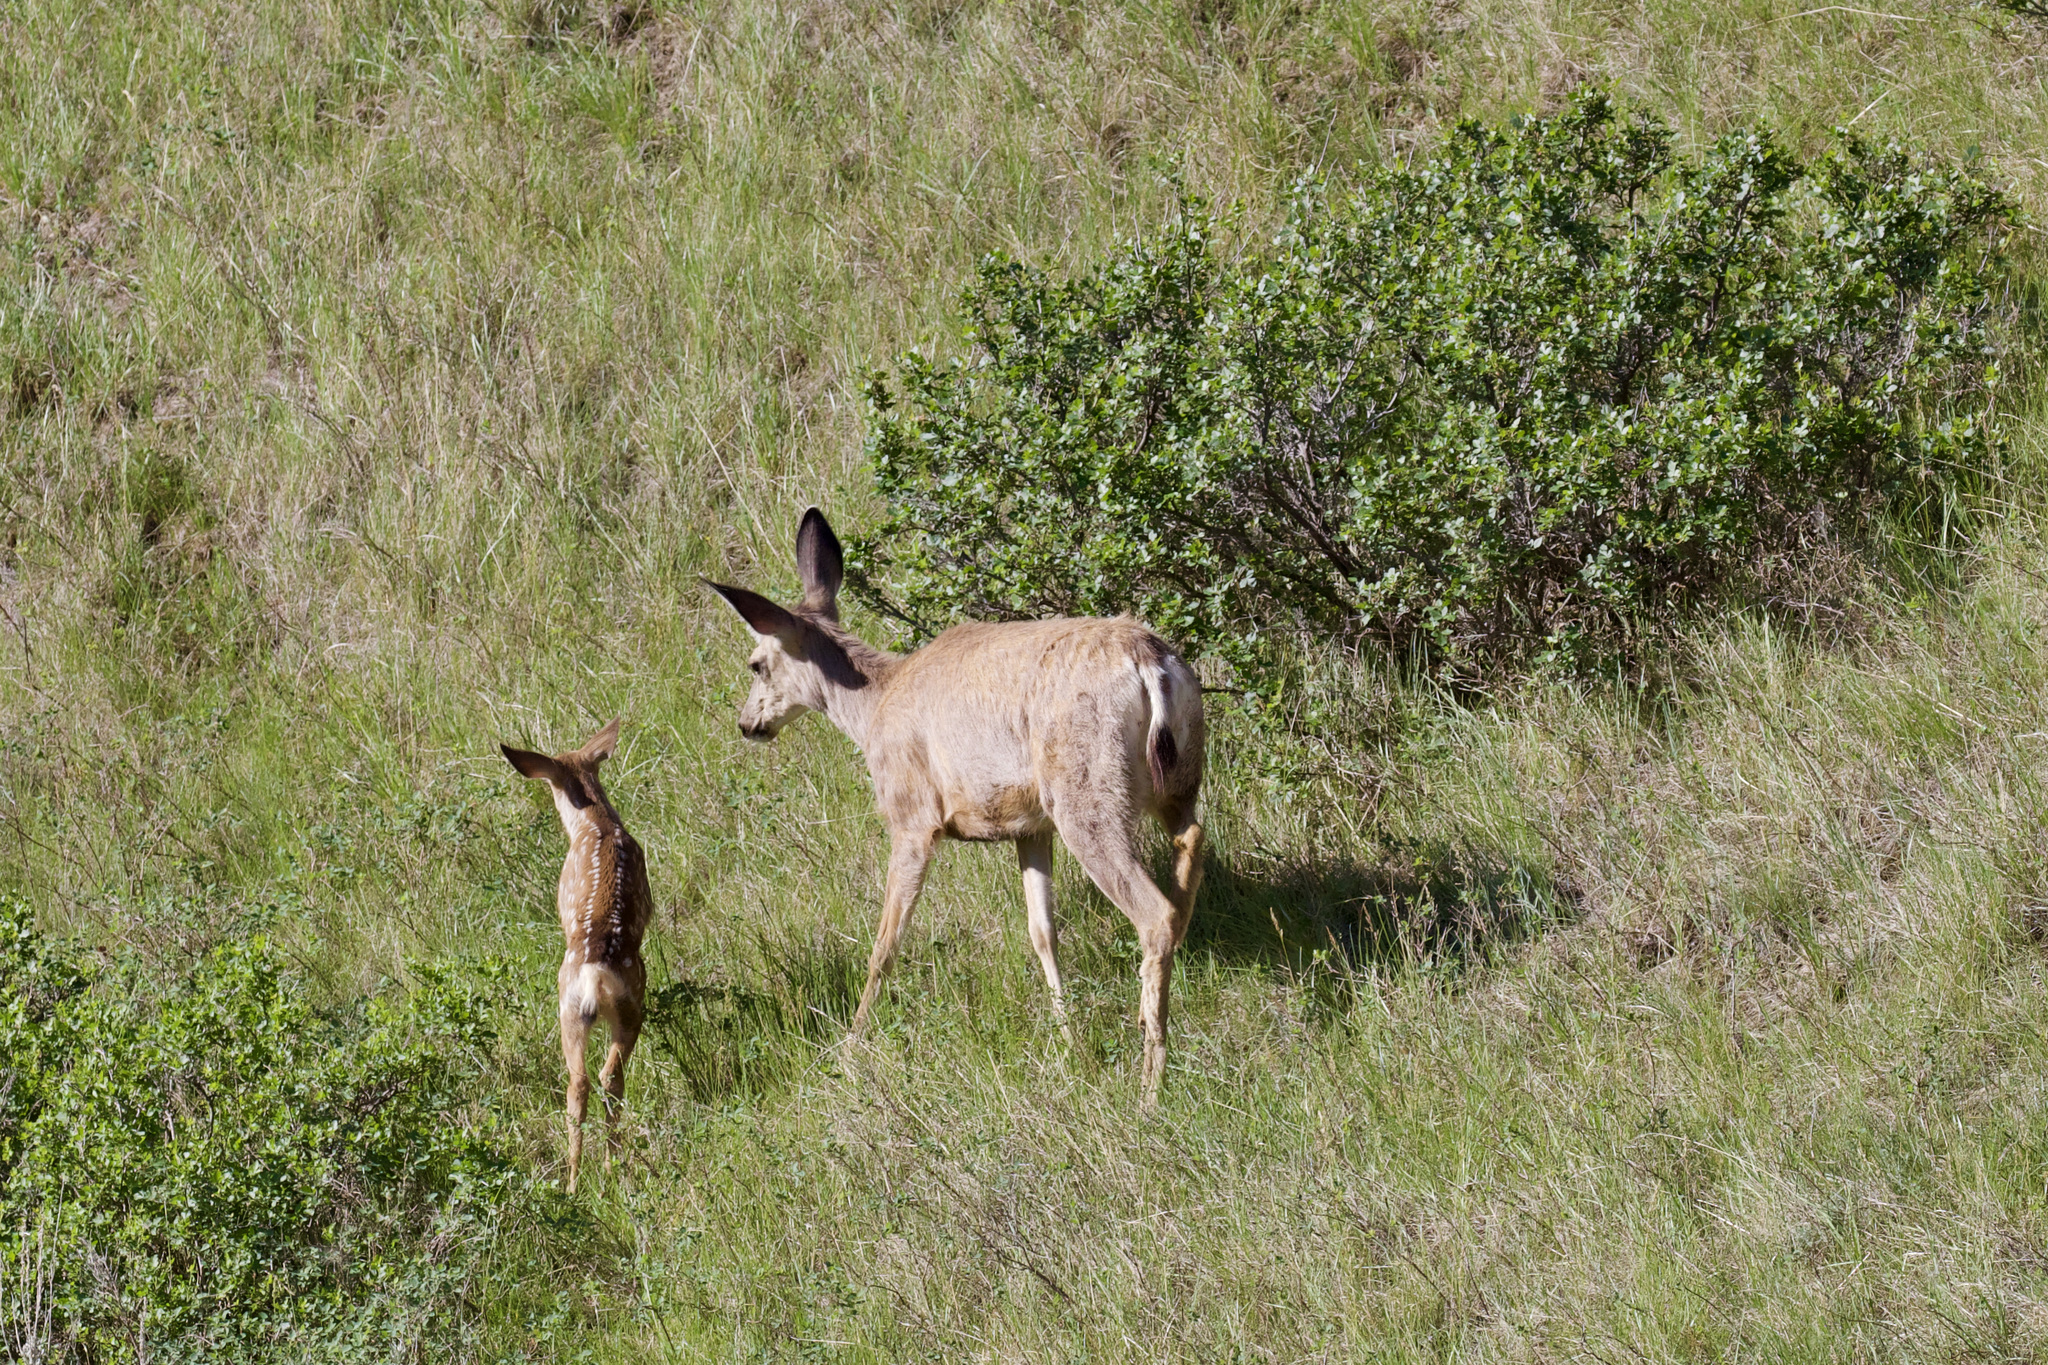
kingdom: Animalia
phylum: Chordata
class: Mammalia
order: Artiodactyla
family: Cervidae
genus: Odocoileus
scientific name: Odocoileus hemionus
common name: Mule deer
